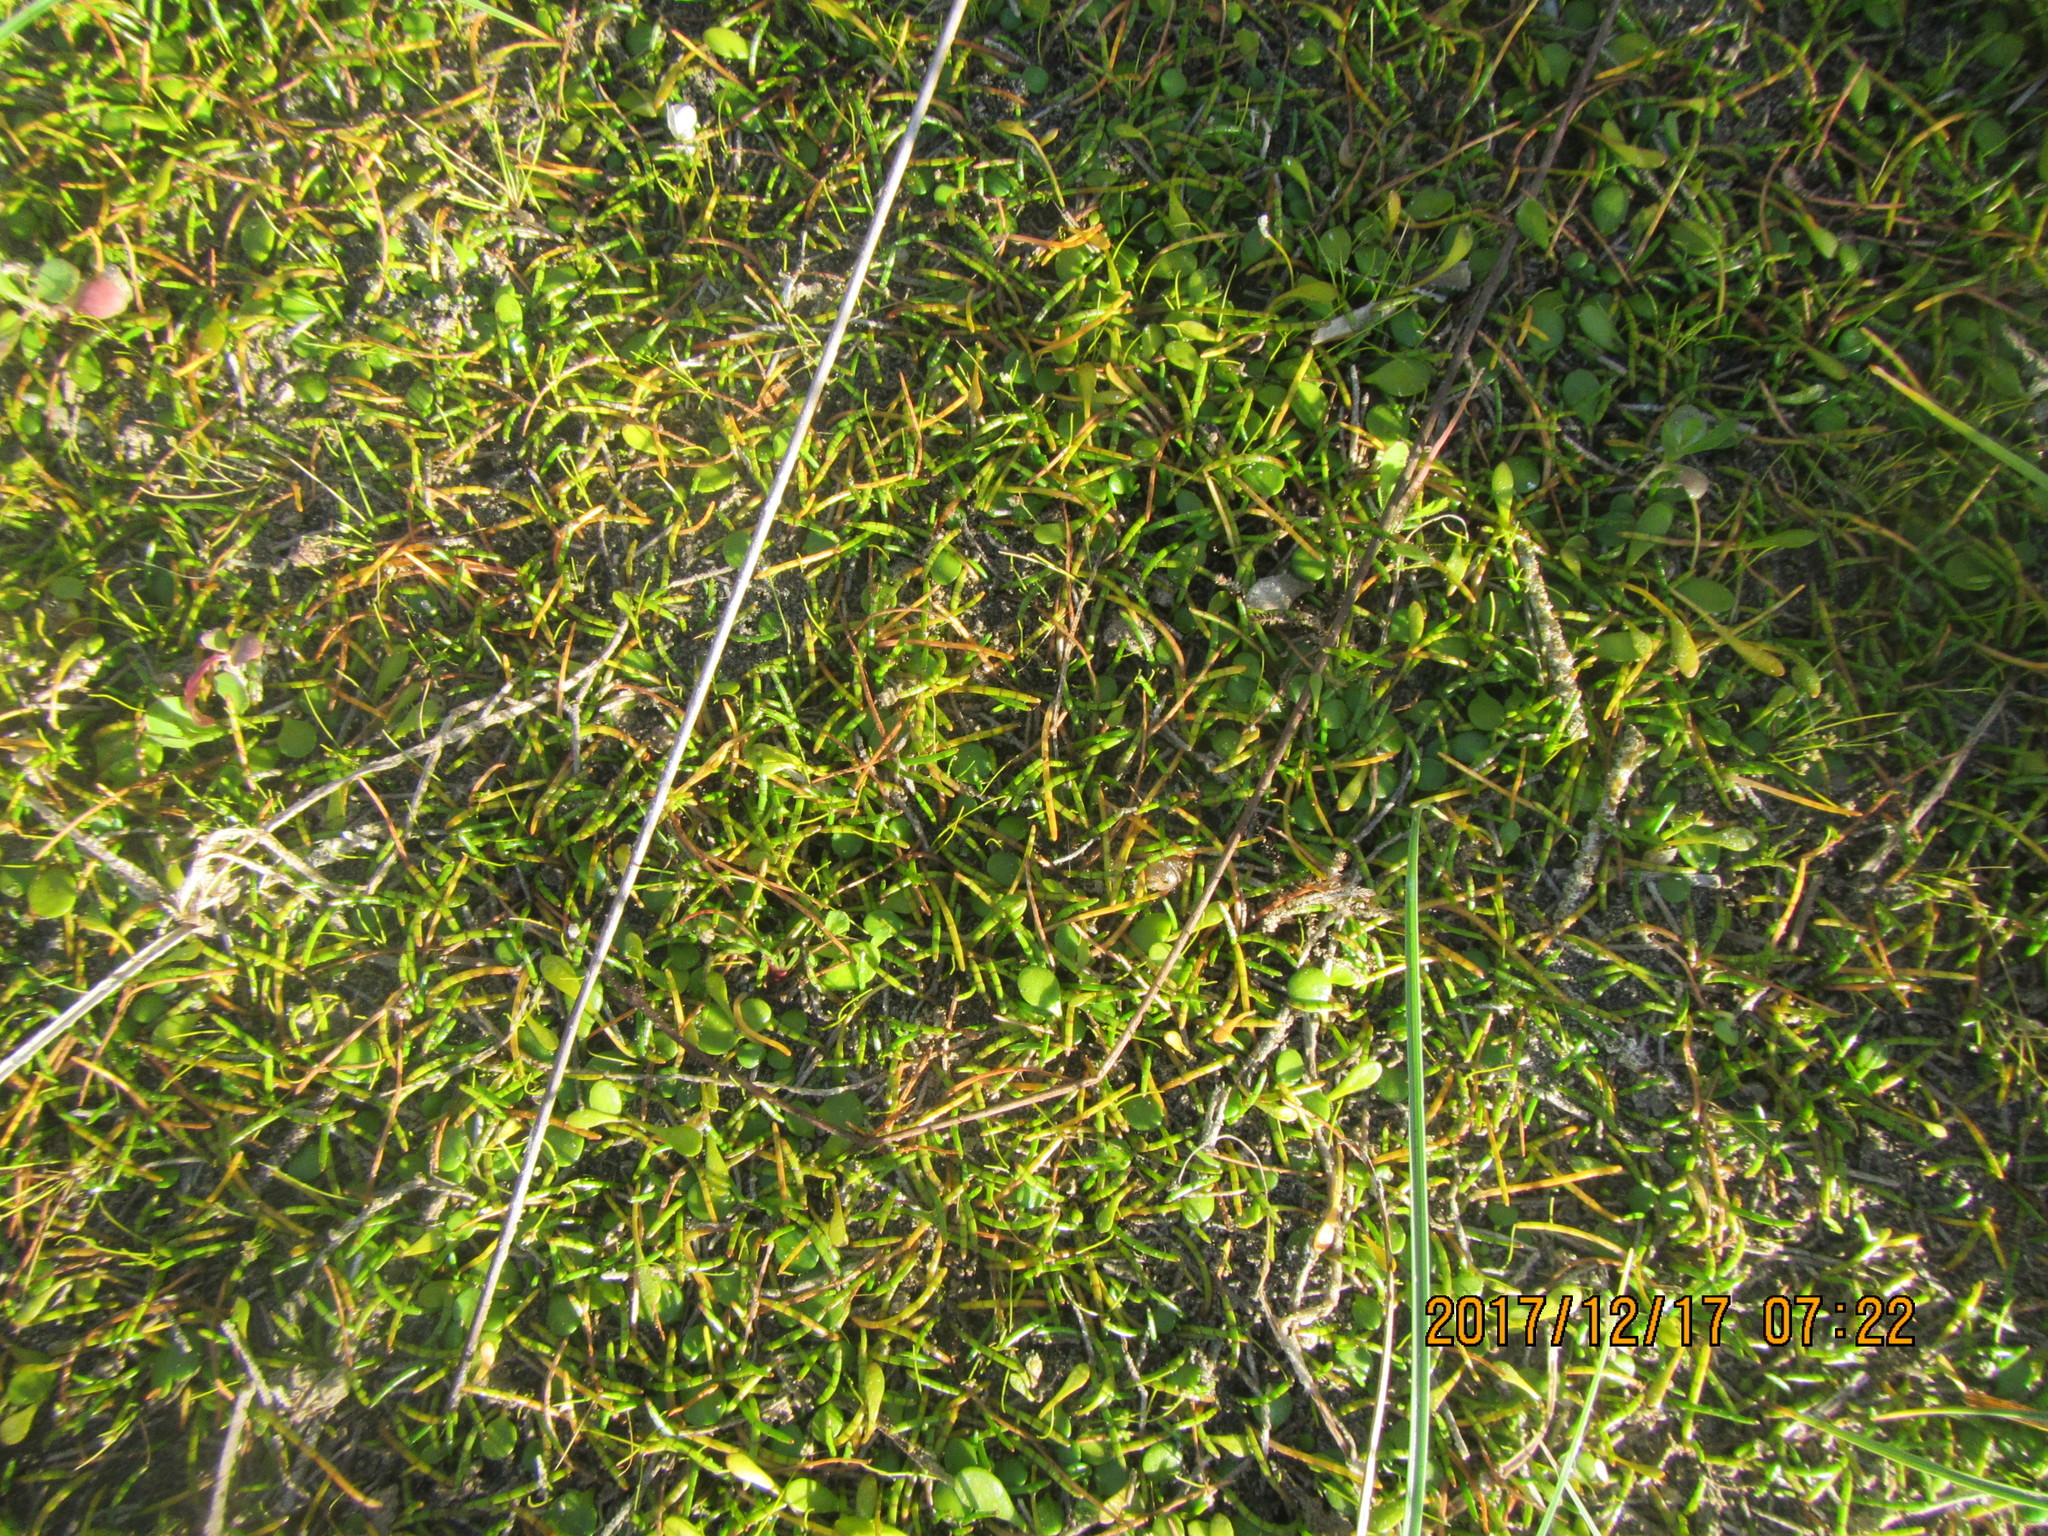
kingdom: Plantae
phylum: Tracheophyta
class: Magnoliopsida
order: Apiales
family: Apiaceae
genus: Lilaeopsis
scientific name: Lilaeopsis novae-zelandiae
